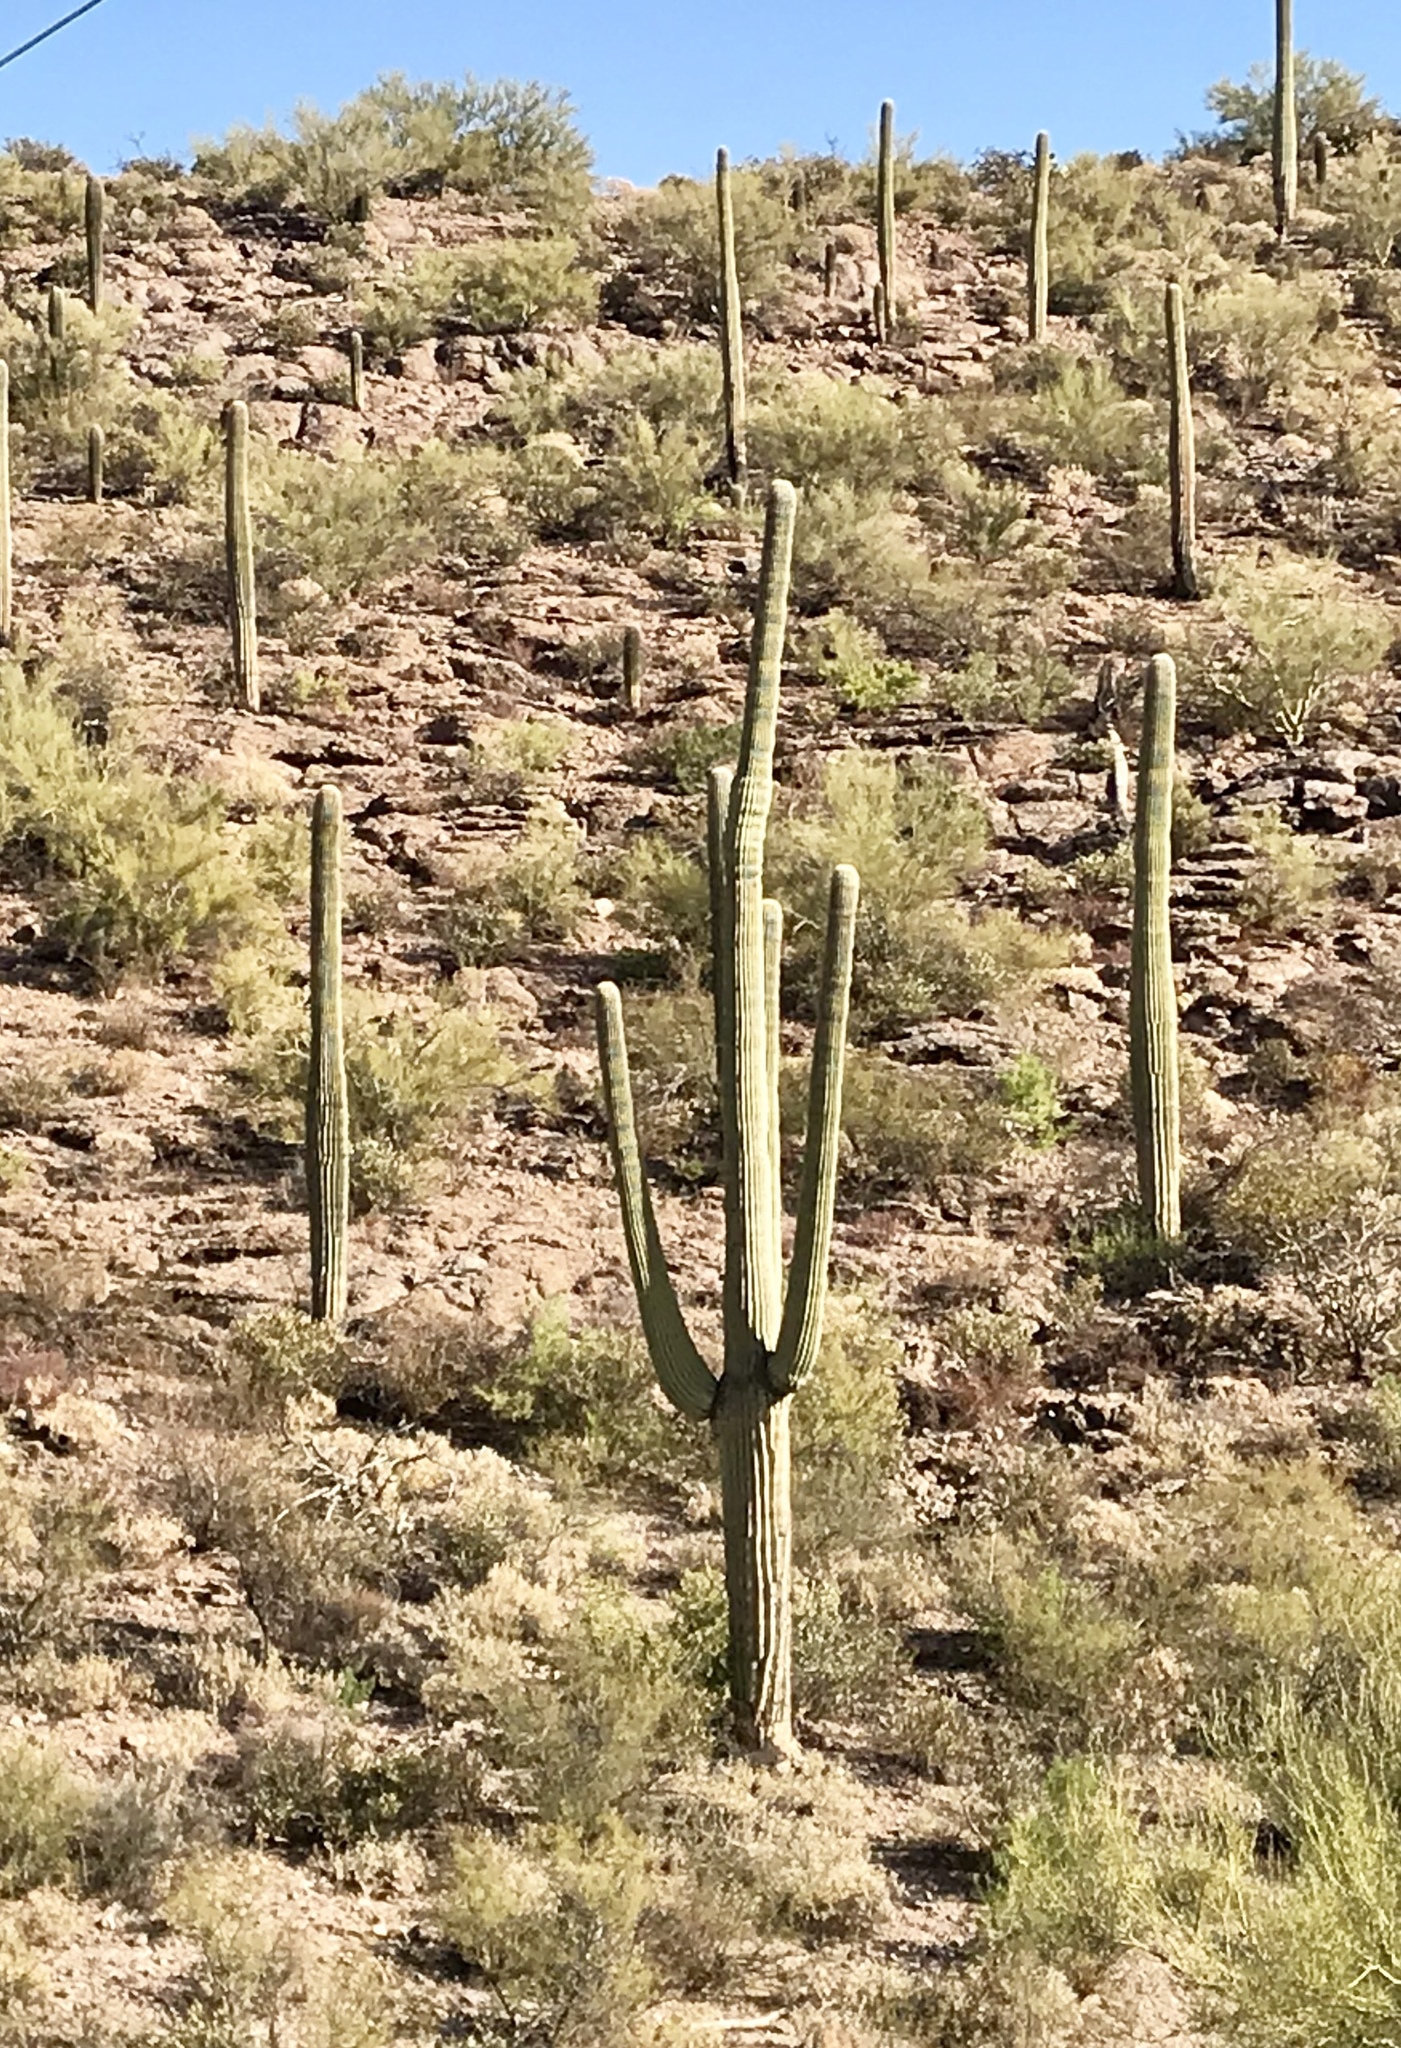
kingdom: Plantae
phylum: Tracheophyta
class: Magnoliopsida
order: Caryophyllales
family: Cactaceae
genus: Carnegiea
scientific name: Carnegiea gigantea
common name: Saguaro
